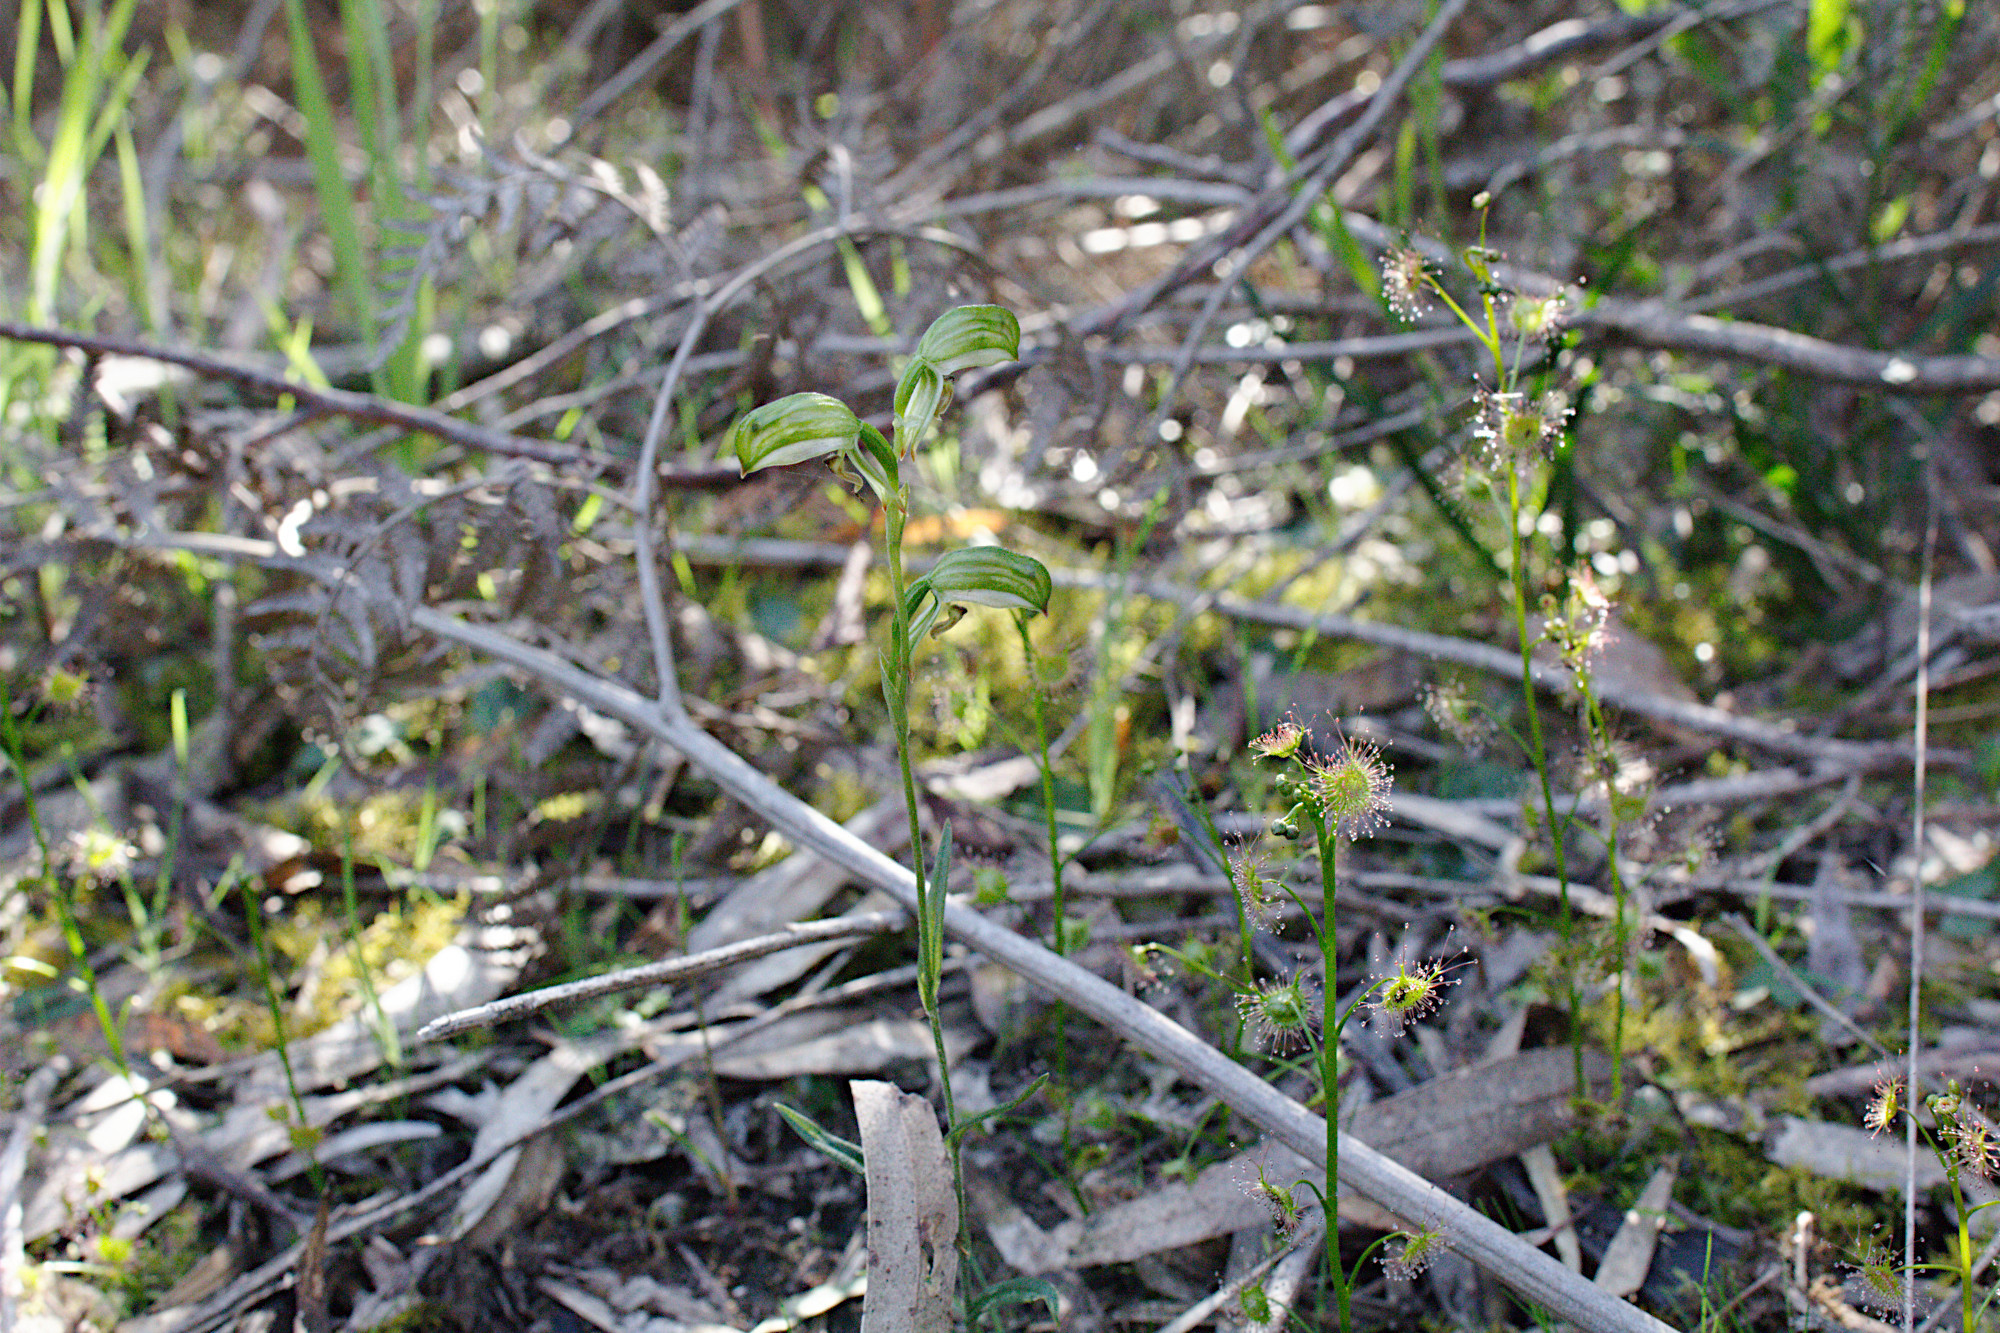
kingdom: Plantae
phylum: Tracheophyta
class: Liliopsida
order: Asparagales
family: Orchidaceae
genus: Pterostylis
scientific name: Pterostylis melagramma
